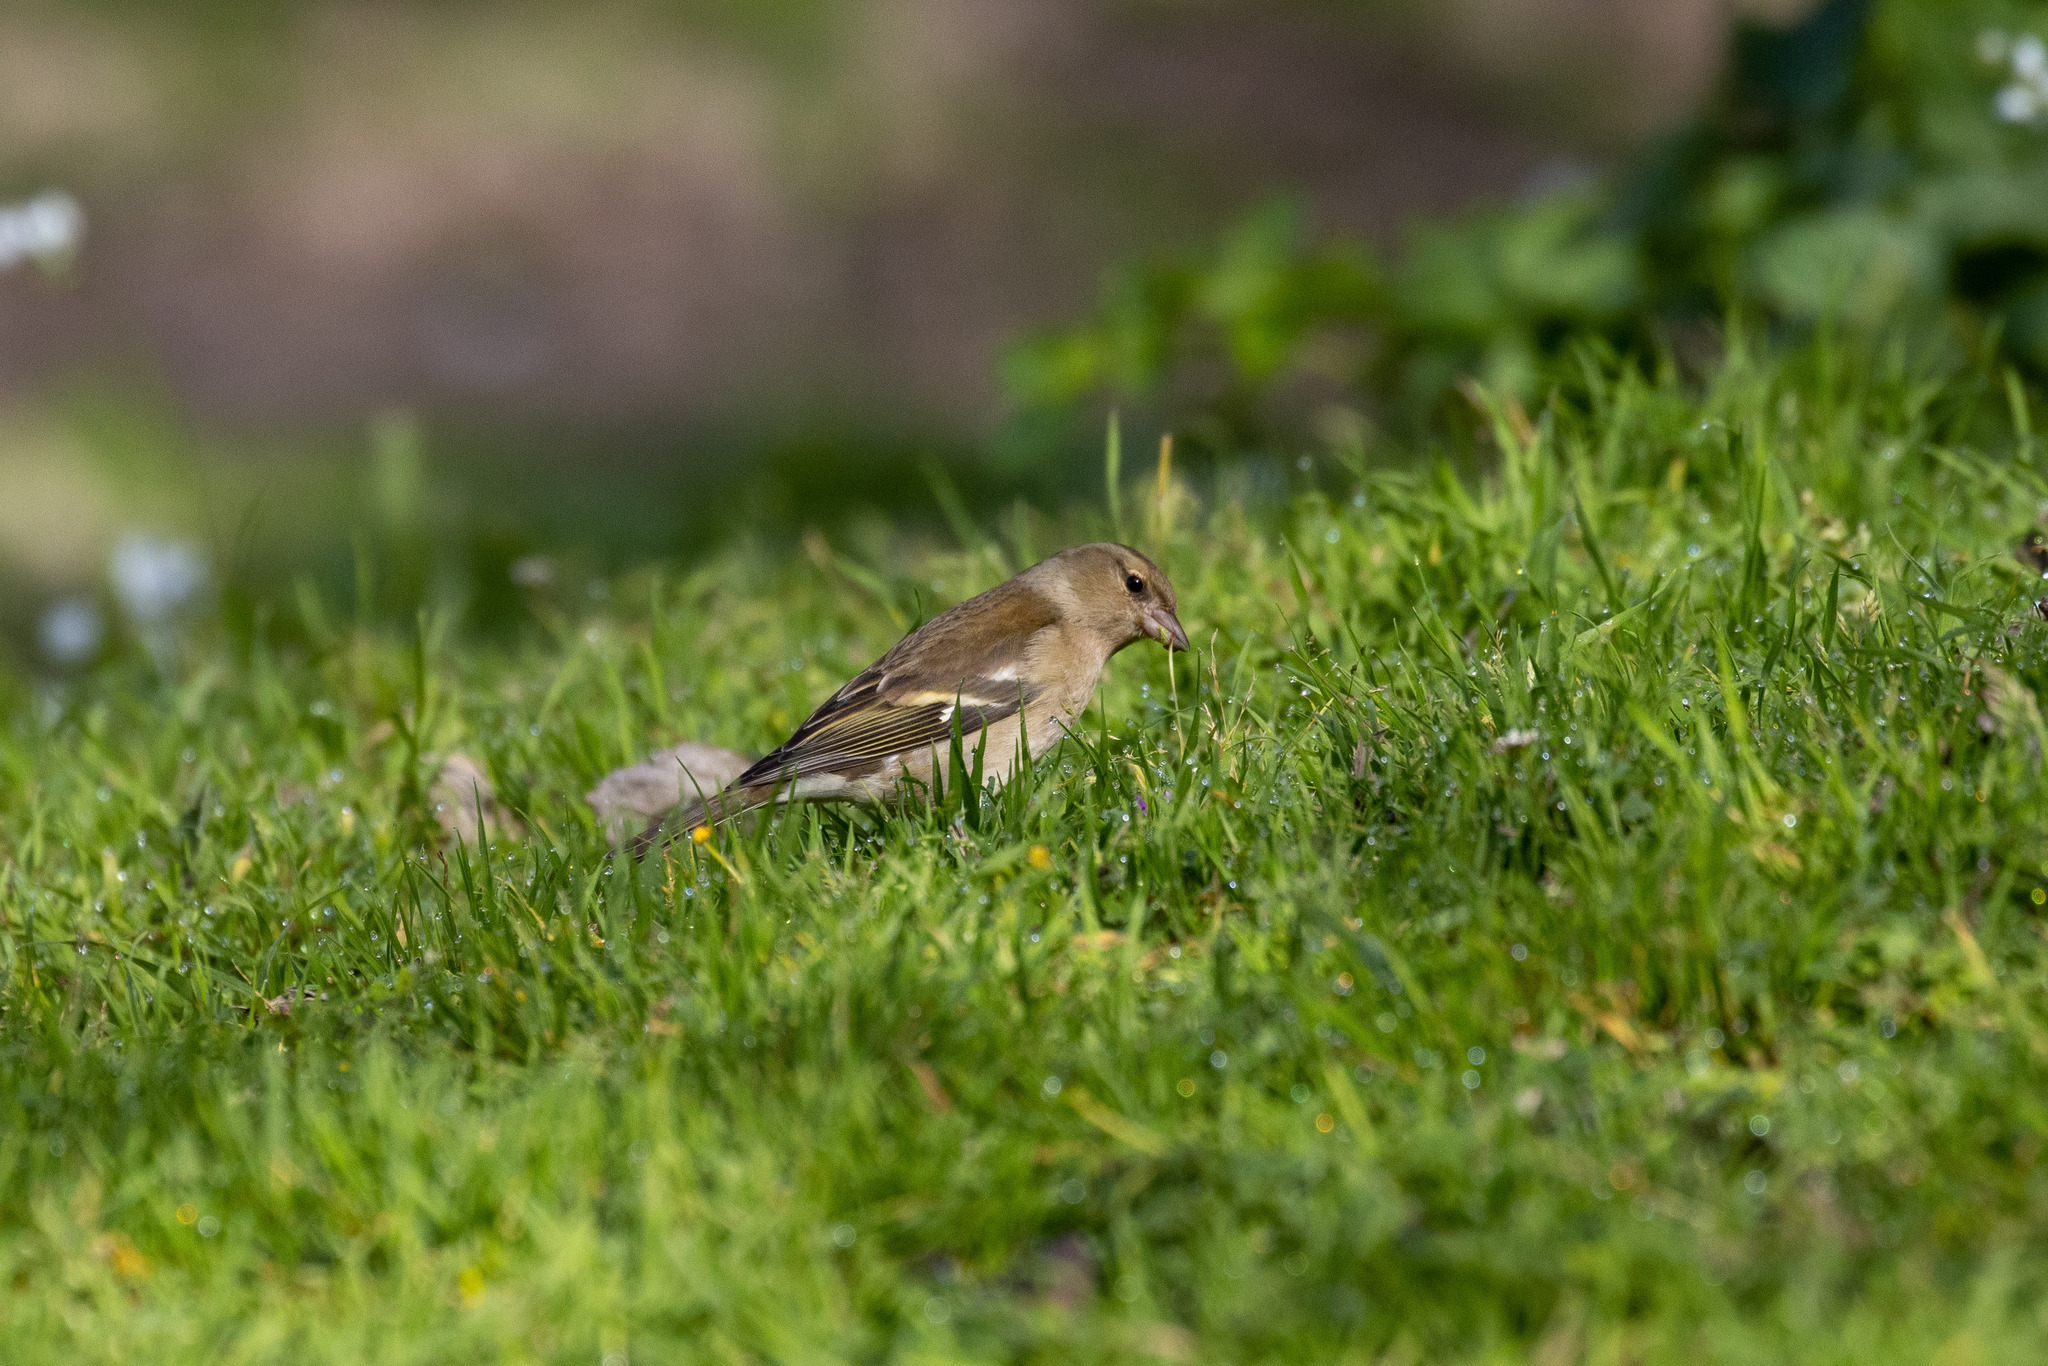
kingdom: Animalia
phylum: Chordata
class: Aves
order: Passeriformes
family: Fringillidae
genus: Fringilla
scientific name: Fringilla coelebs
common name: Common chaffinch
